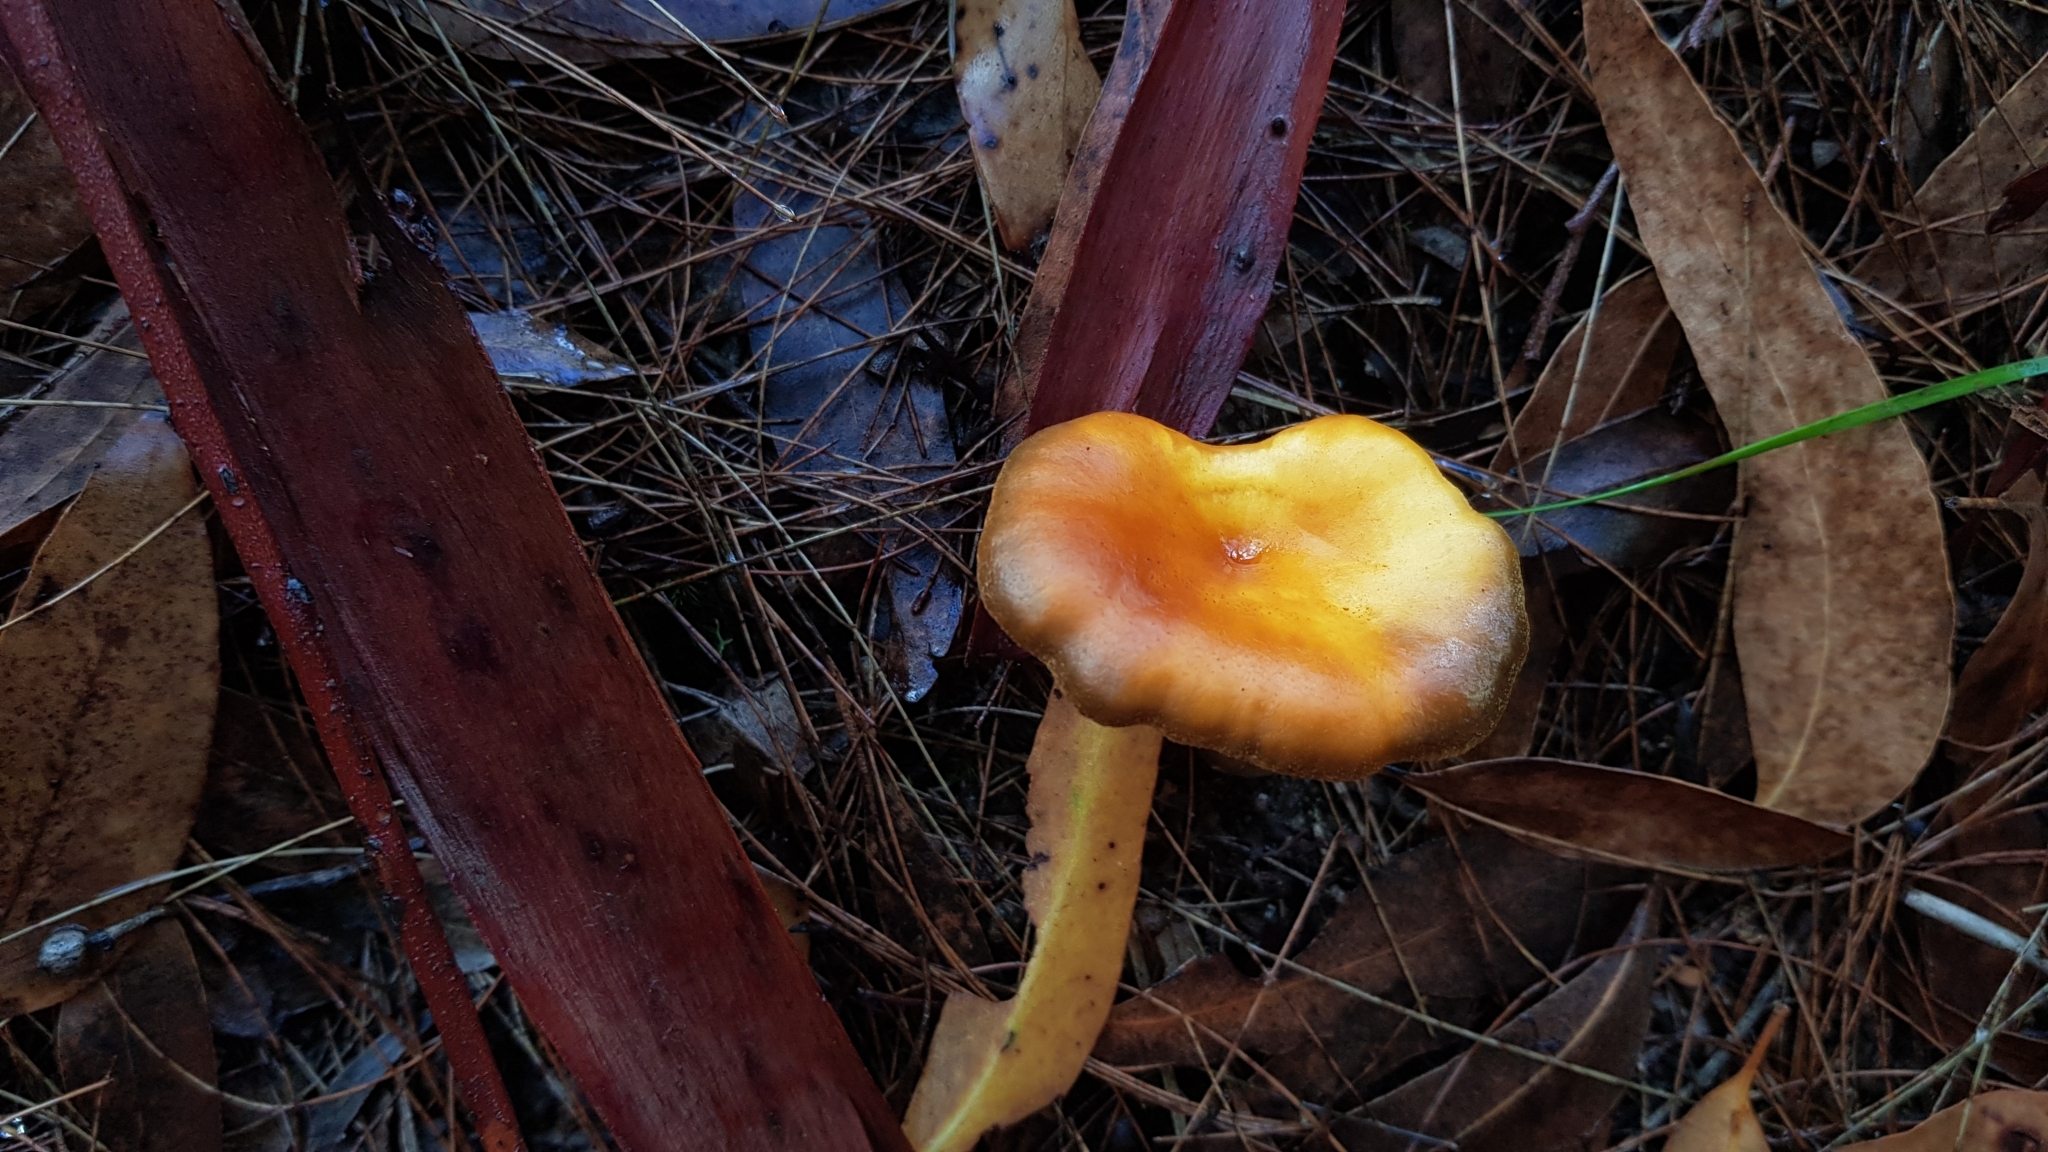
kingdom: Fungi
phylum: Basidiomycota
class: Agaricomycetes
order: Agaricales
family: Omphalotaceae
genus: Omphalotus
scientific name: Omphalotus nidiformis
